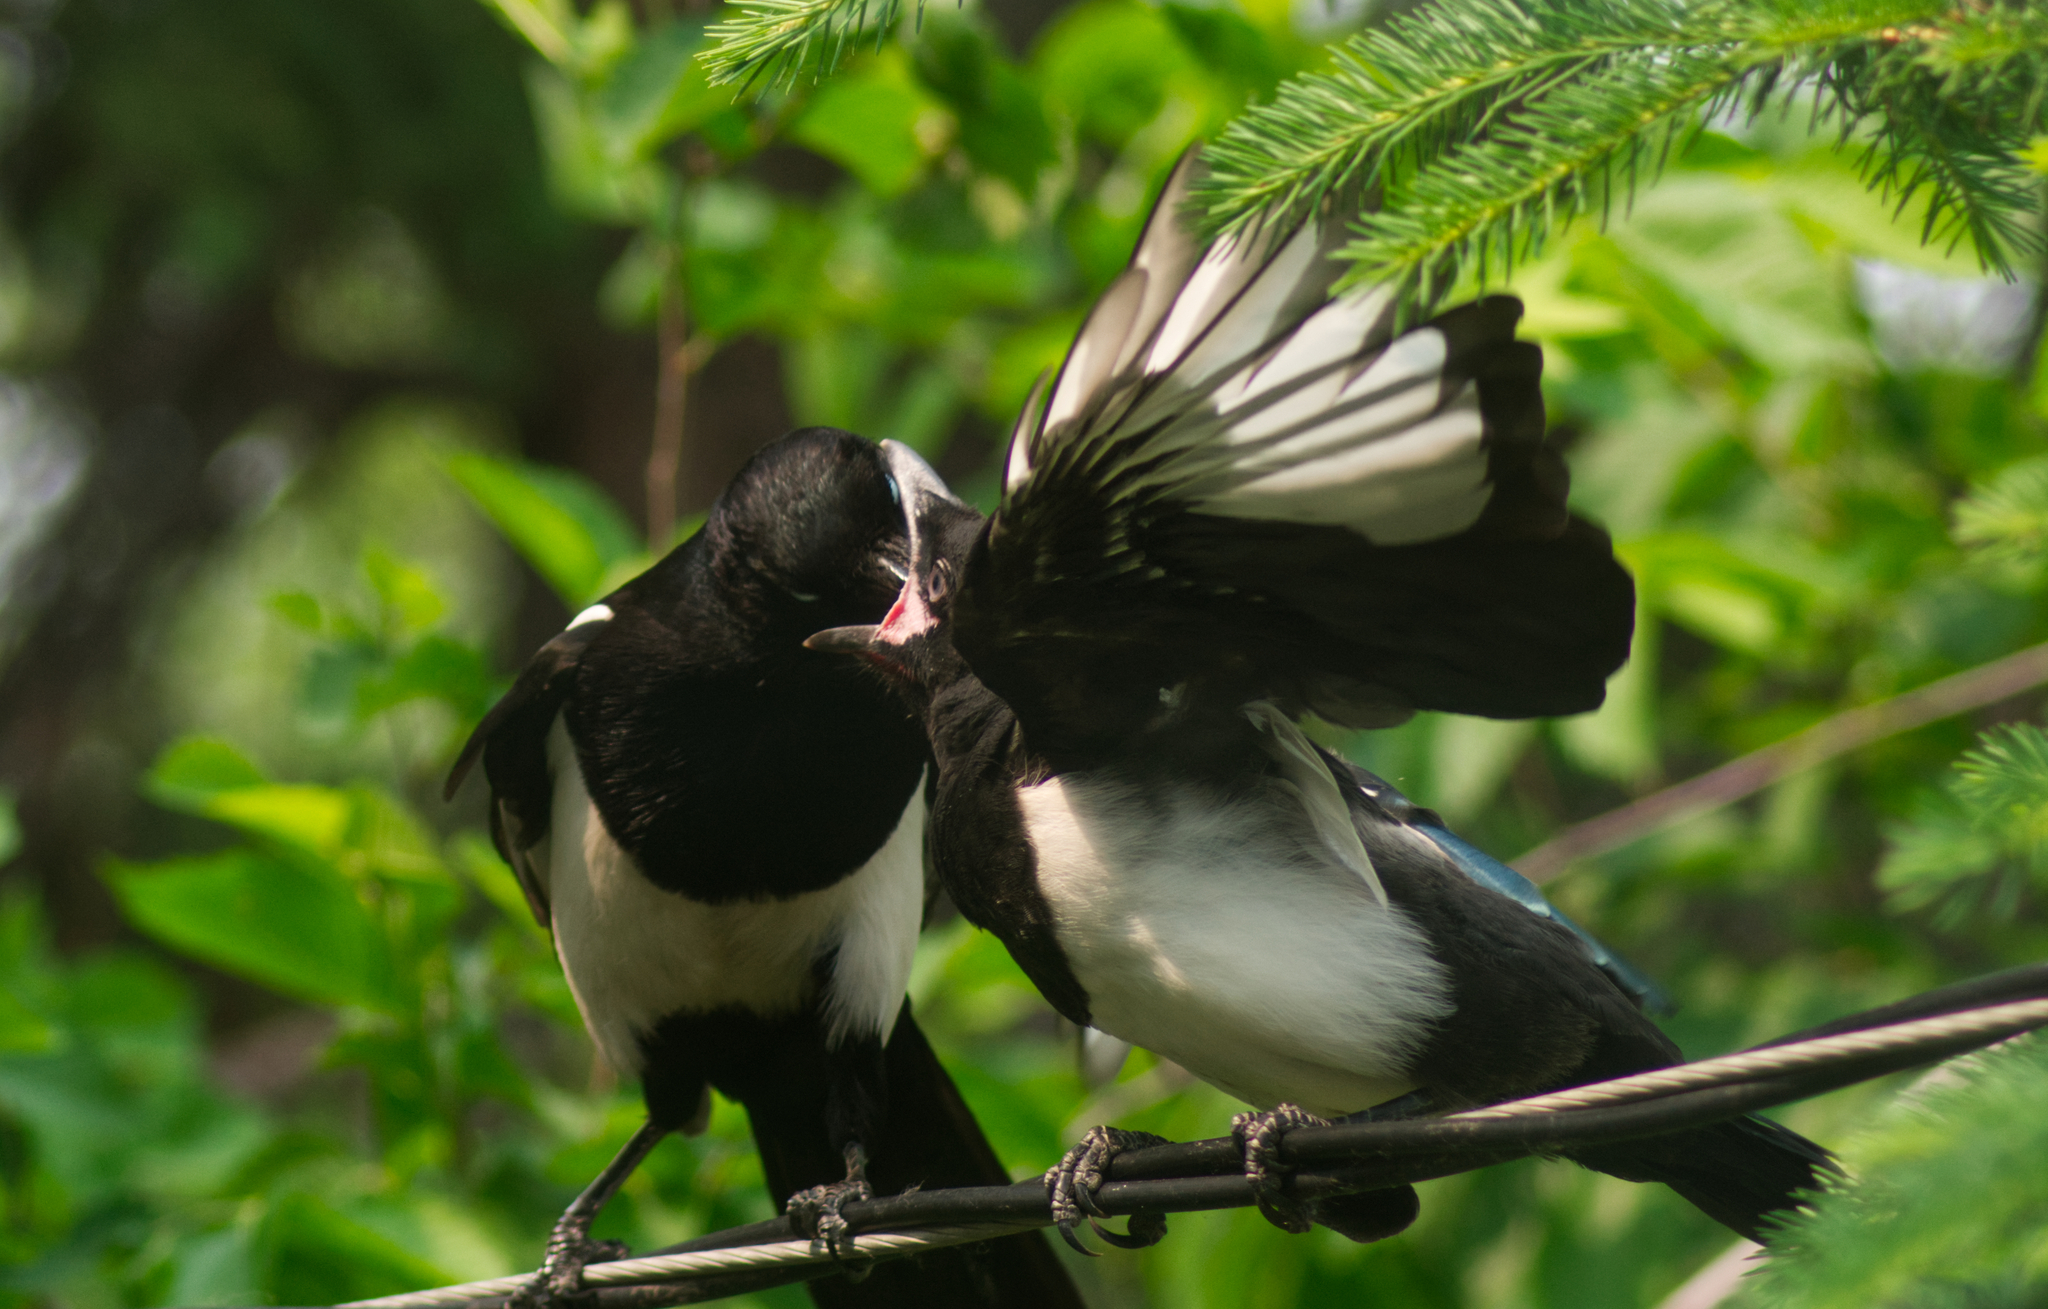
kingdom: Animalia
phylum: Chordata
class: Aves
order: Passeriformes
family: Corvidae
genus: Pica
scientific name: Pica hudsonia
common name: Black-billed magpie
